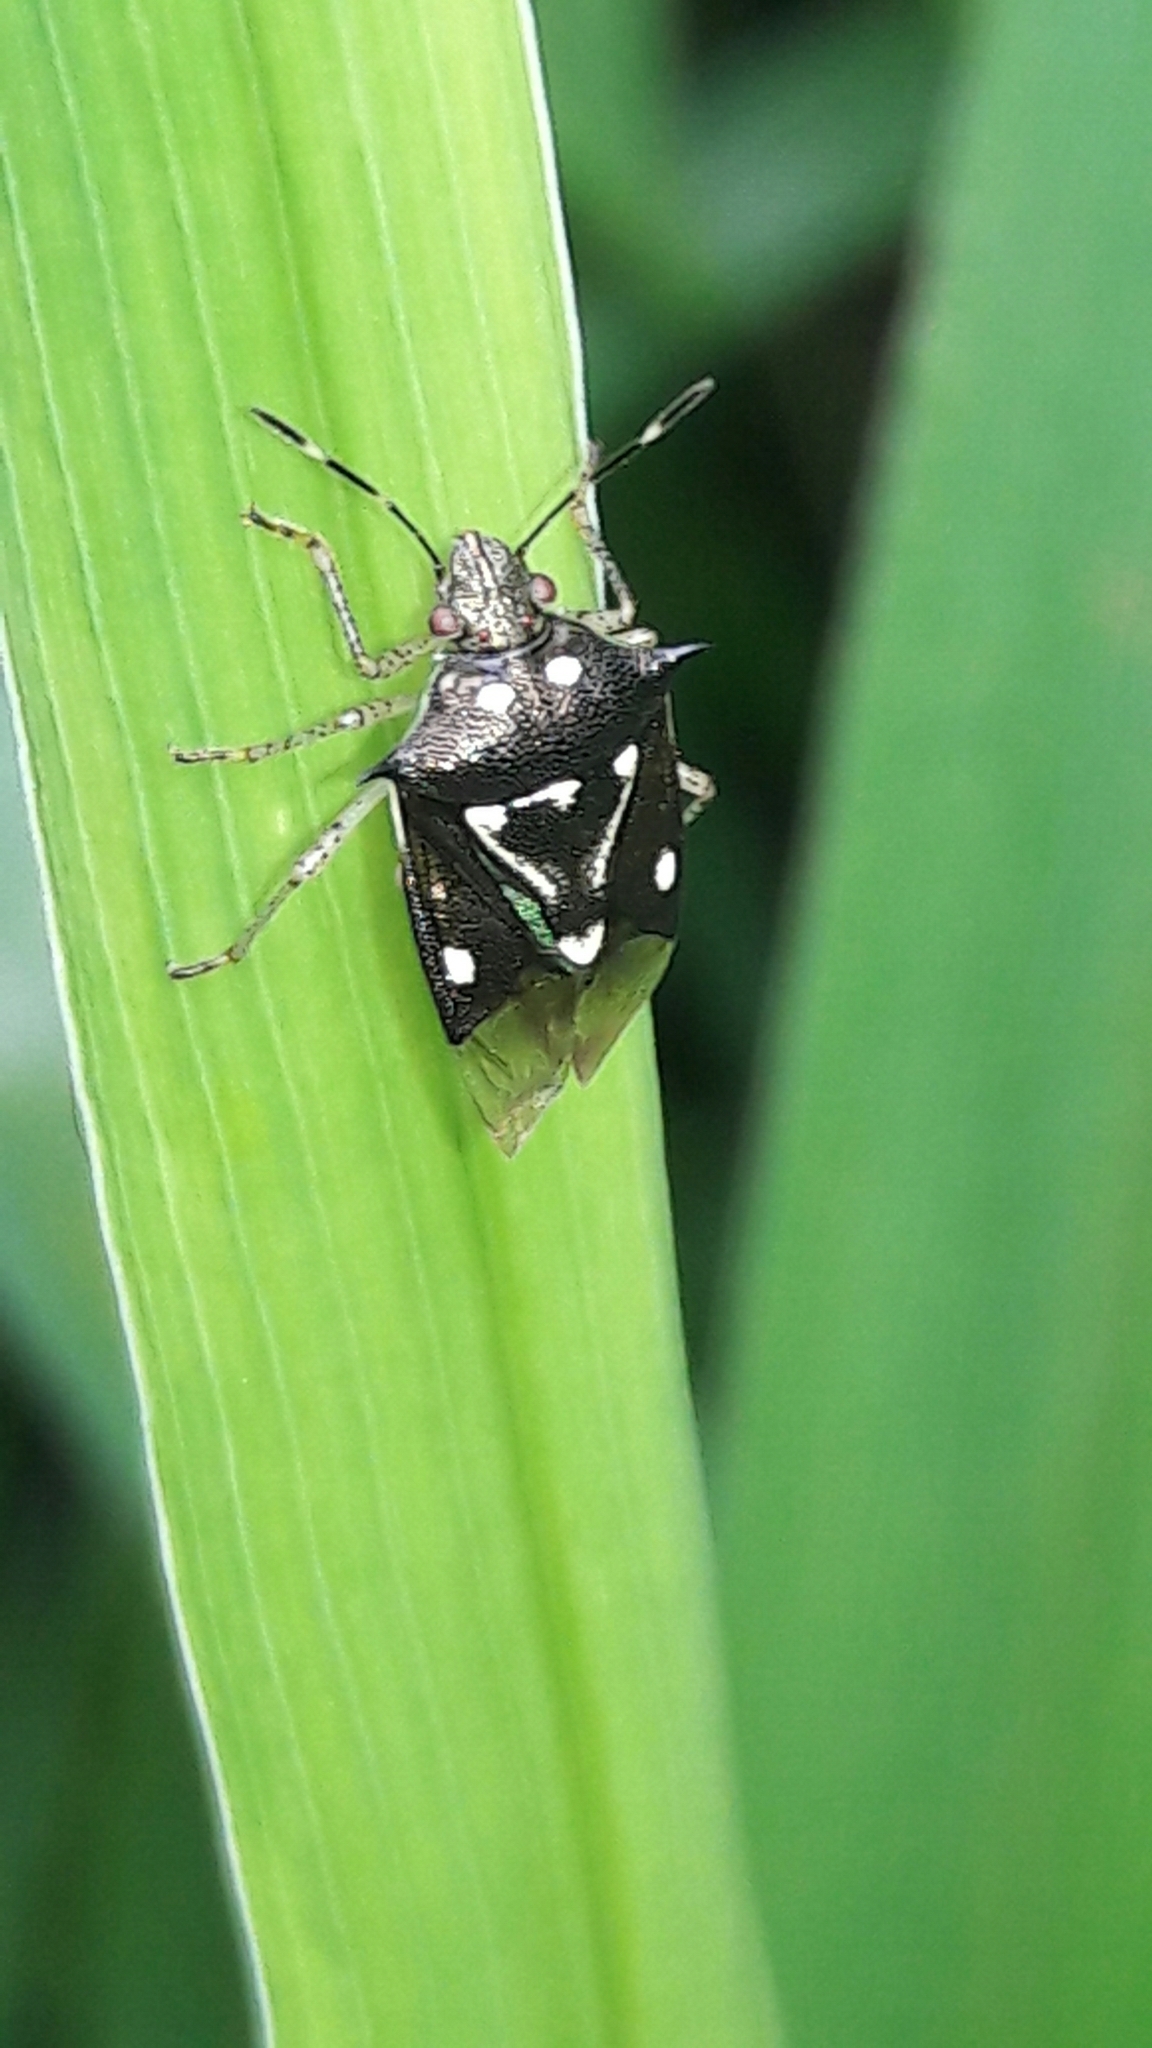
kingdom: Animalia
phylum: Arthropoda
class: Insecta
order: Hemiptera
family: Pentatomidae
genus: Mormidea
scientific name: Mormidea v-luteum
